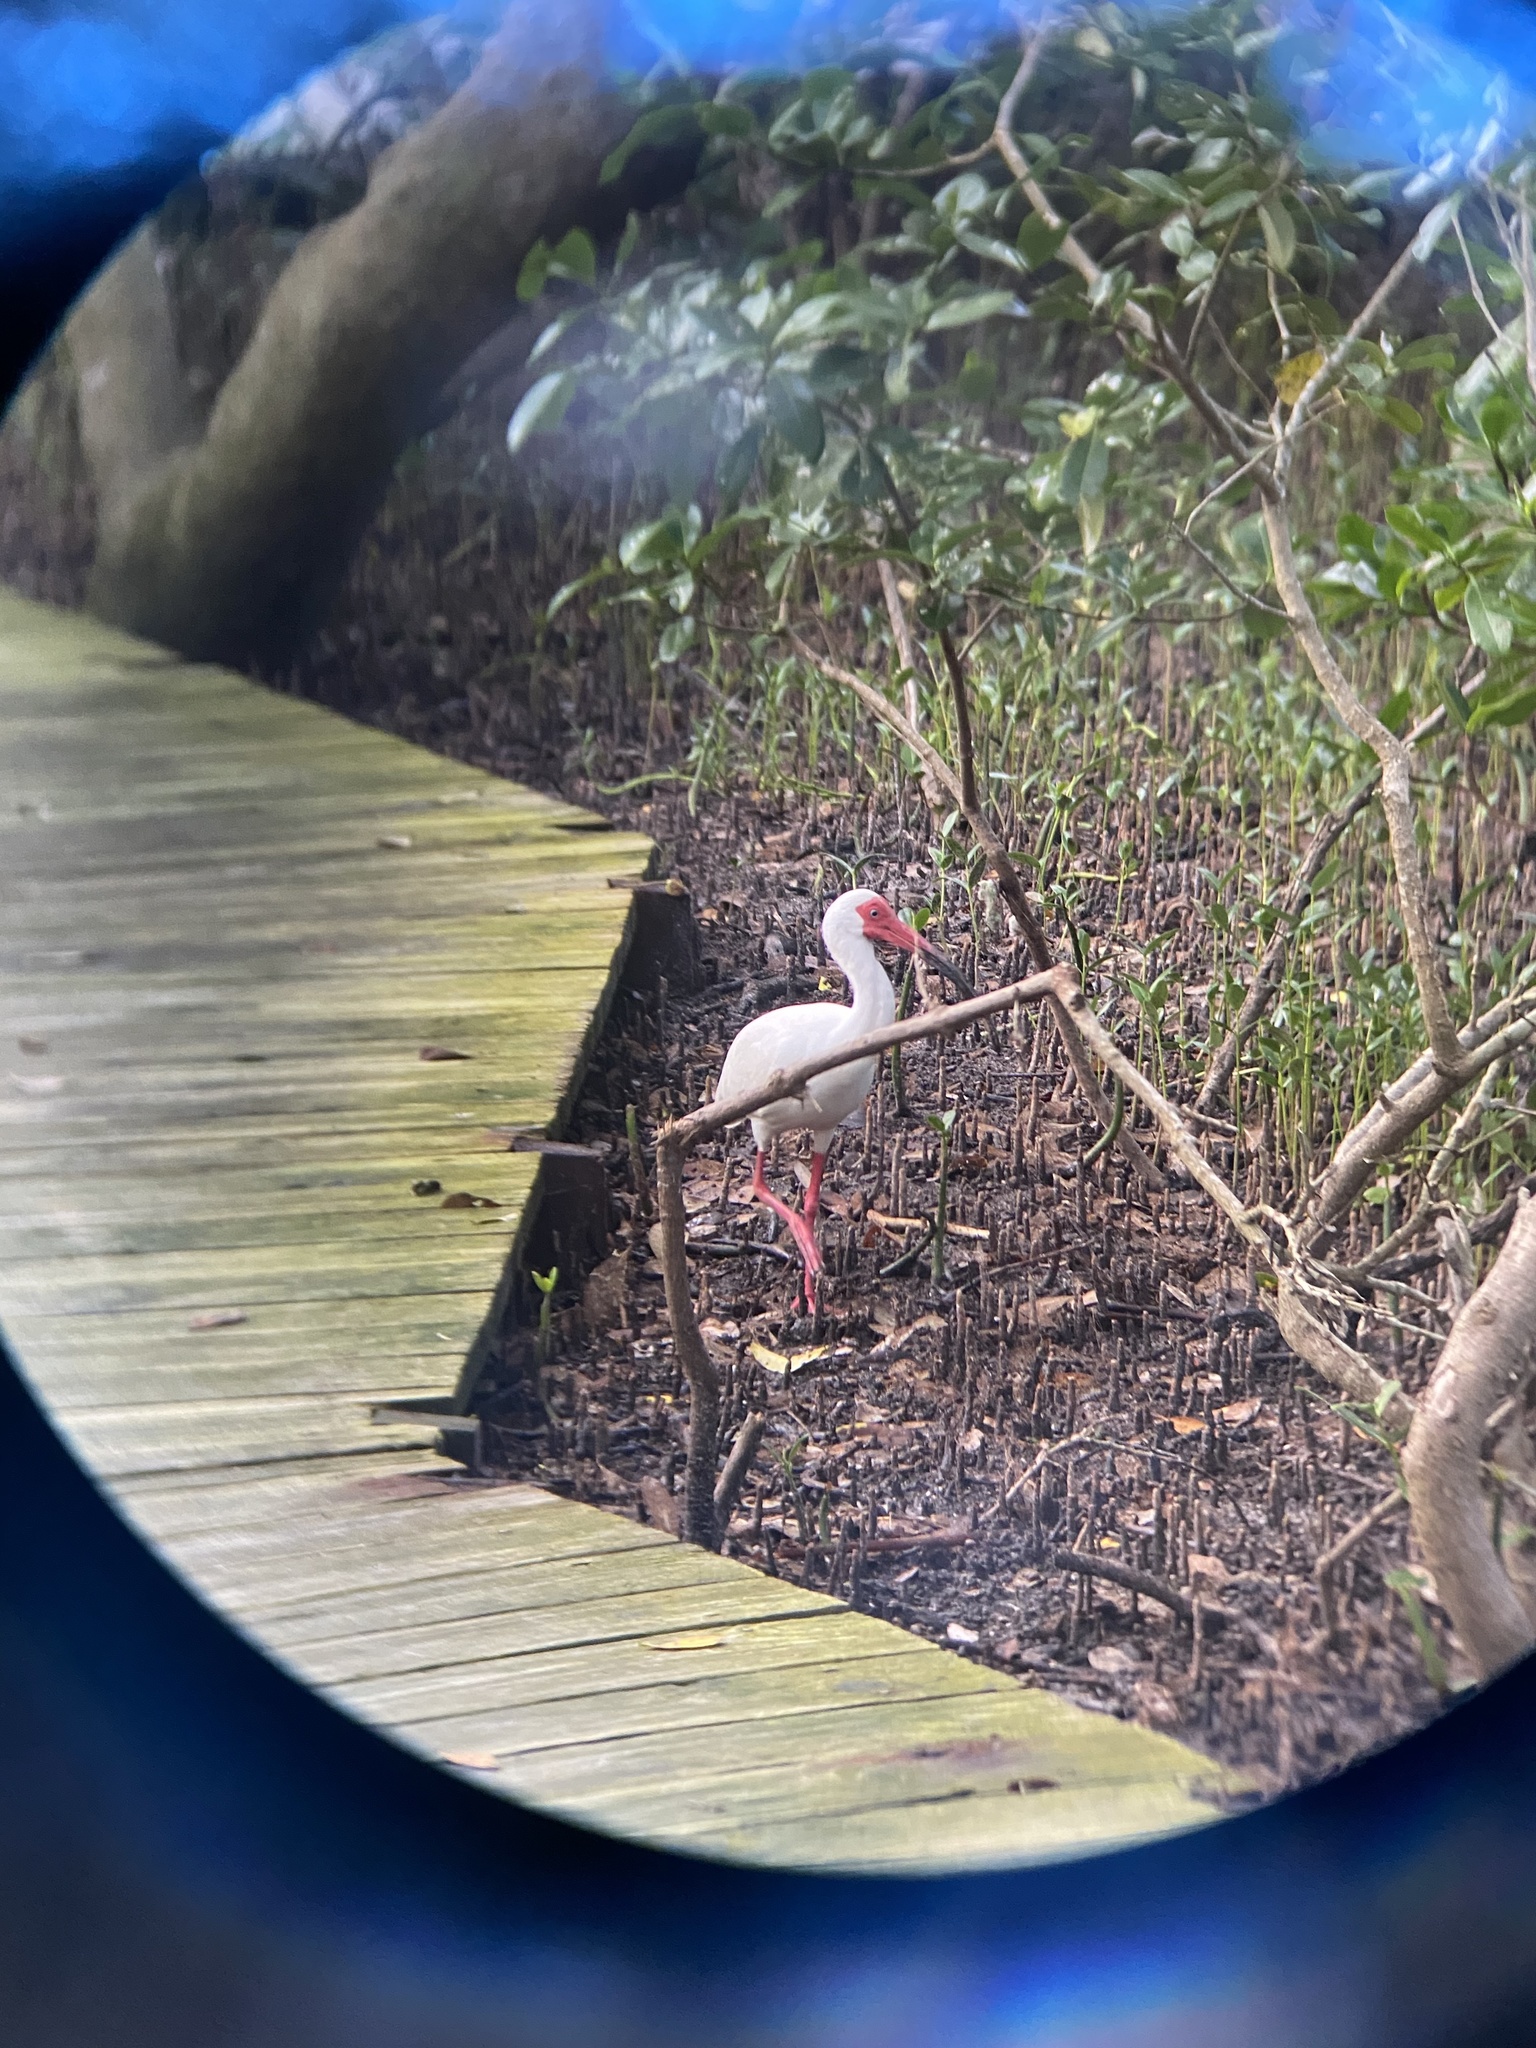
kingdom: Animalia
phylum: Chordata
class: Aves
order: Pelecaniformes
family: Threskiornithidae
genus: Eudocimus
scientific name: Eudocimus albus
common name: White ibis
